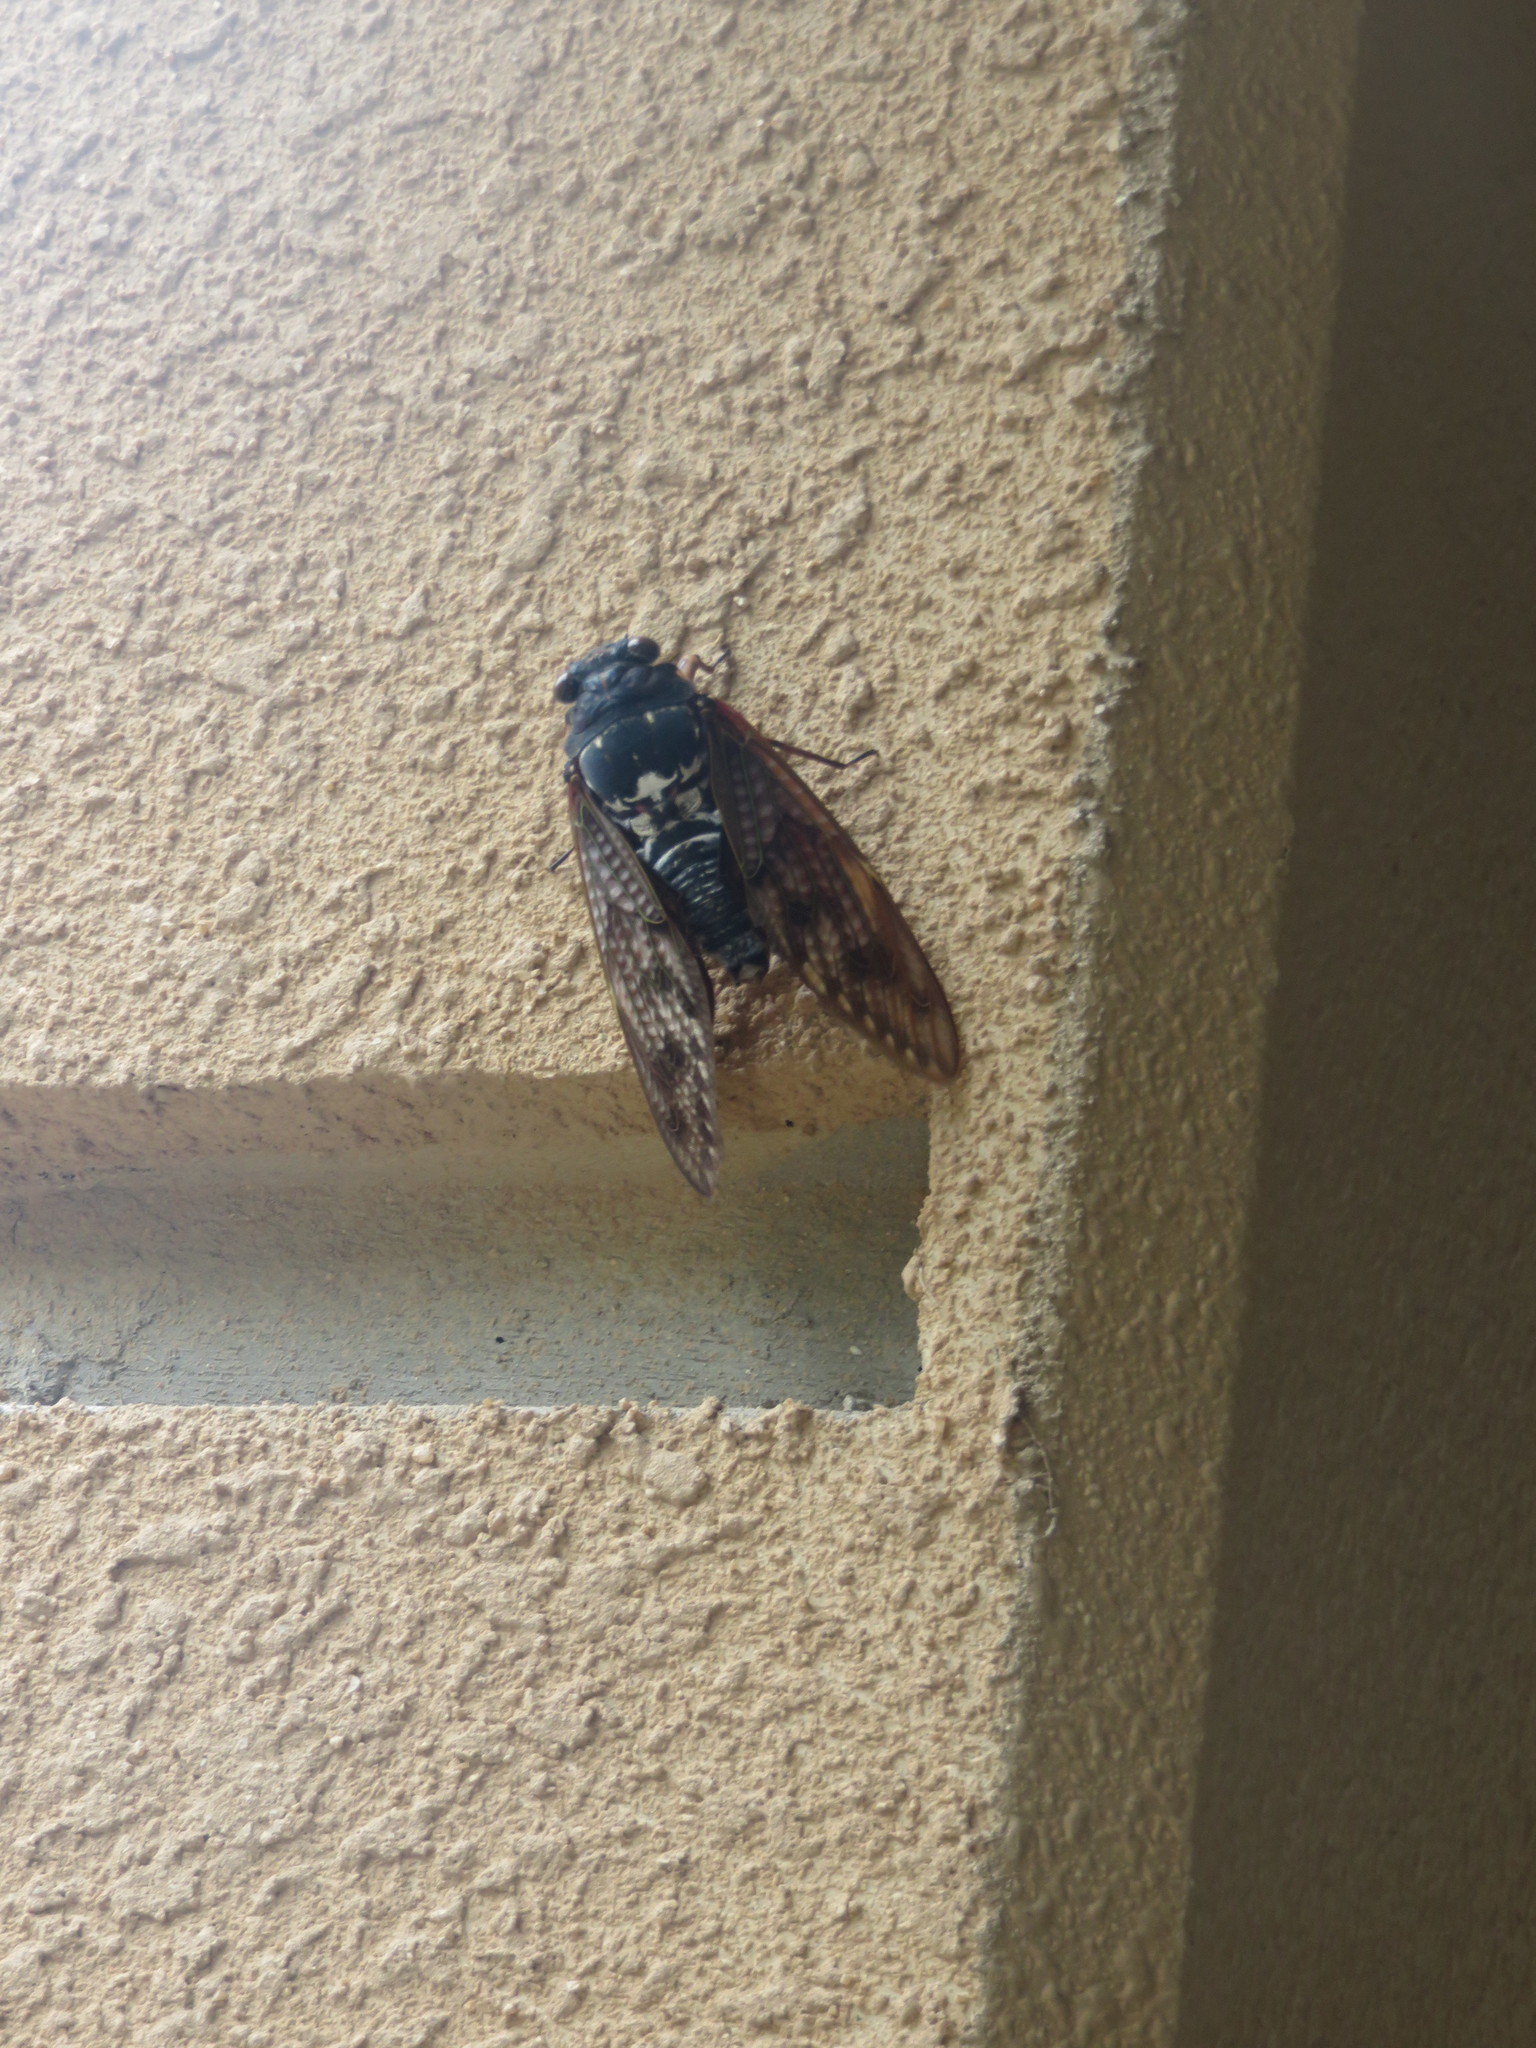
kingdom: Animalia
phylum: Arthropoda
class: Insecta
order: Hemiptera
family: Cicadidae
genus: Graptopsaltria
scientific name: Graptopsaltria nigrofuscata
